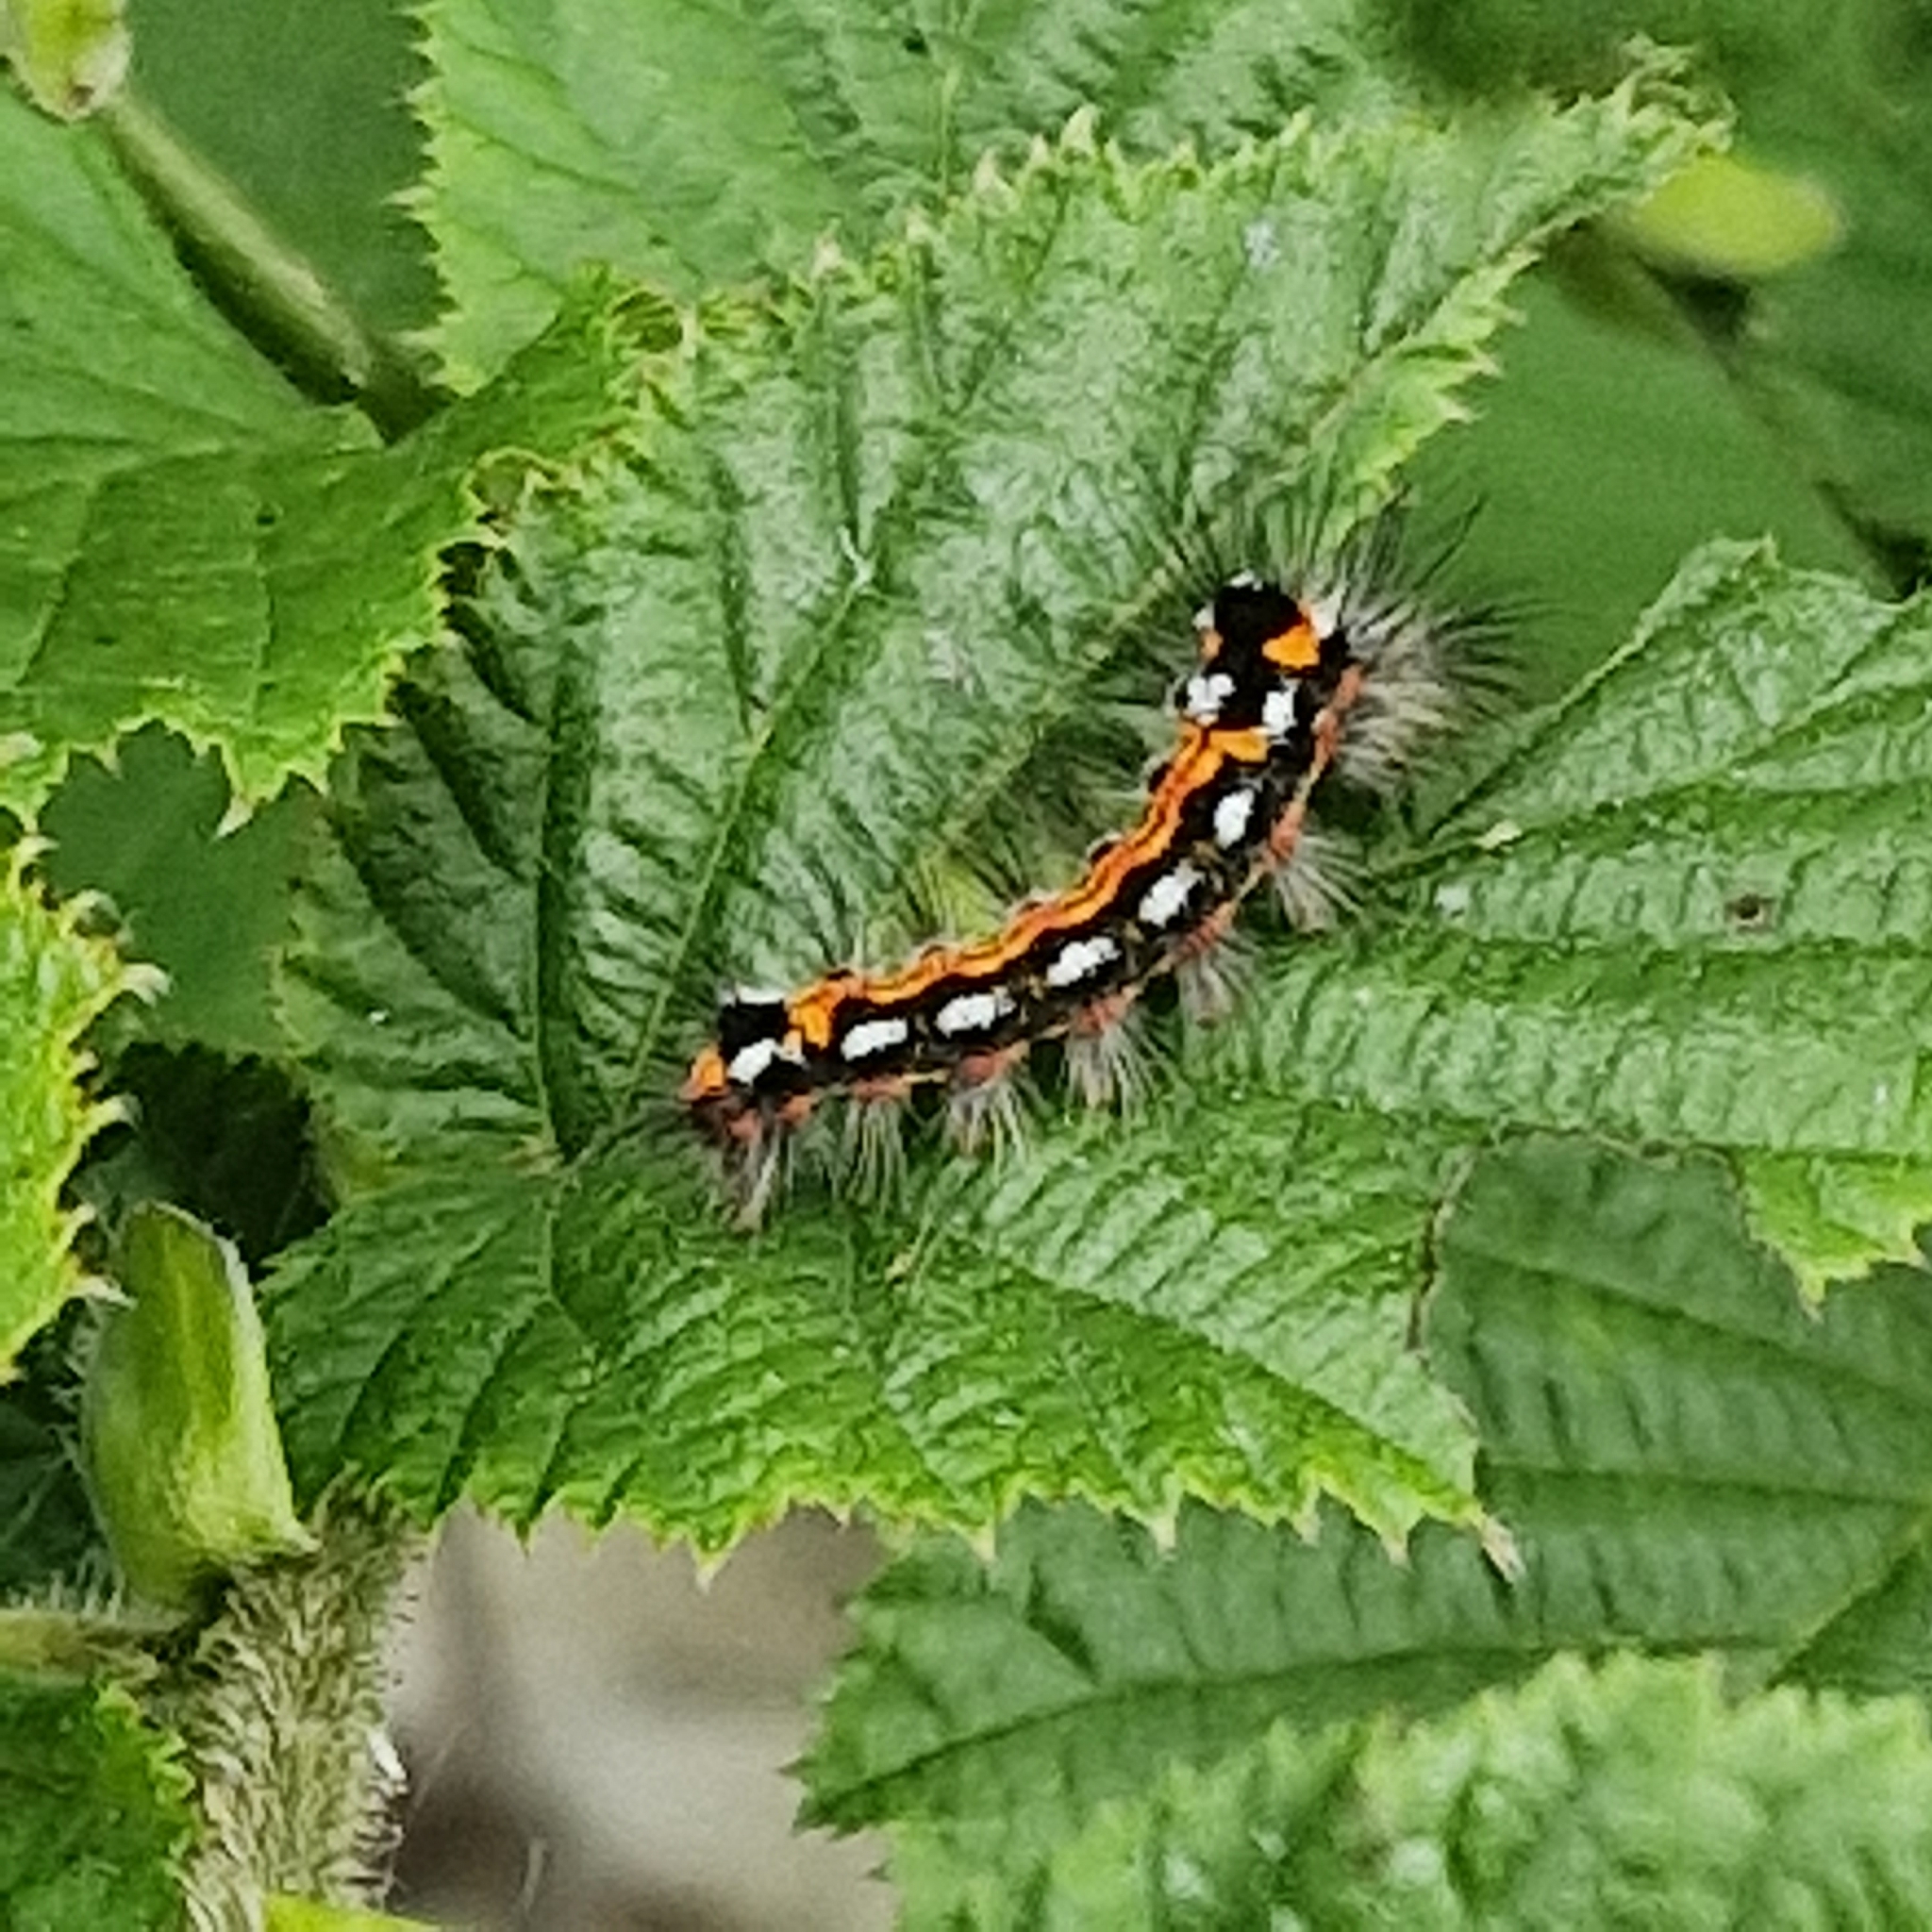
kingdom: Animalia
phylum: Arthropoda
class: Insecta
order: Lepidoptera
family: Erebidae
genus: Sphrageidus
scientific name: Sphrageidus similis
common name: Yellow-tail
